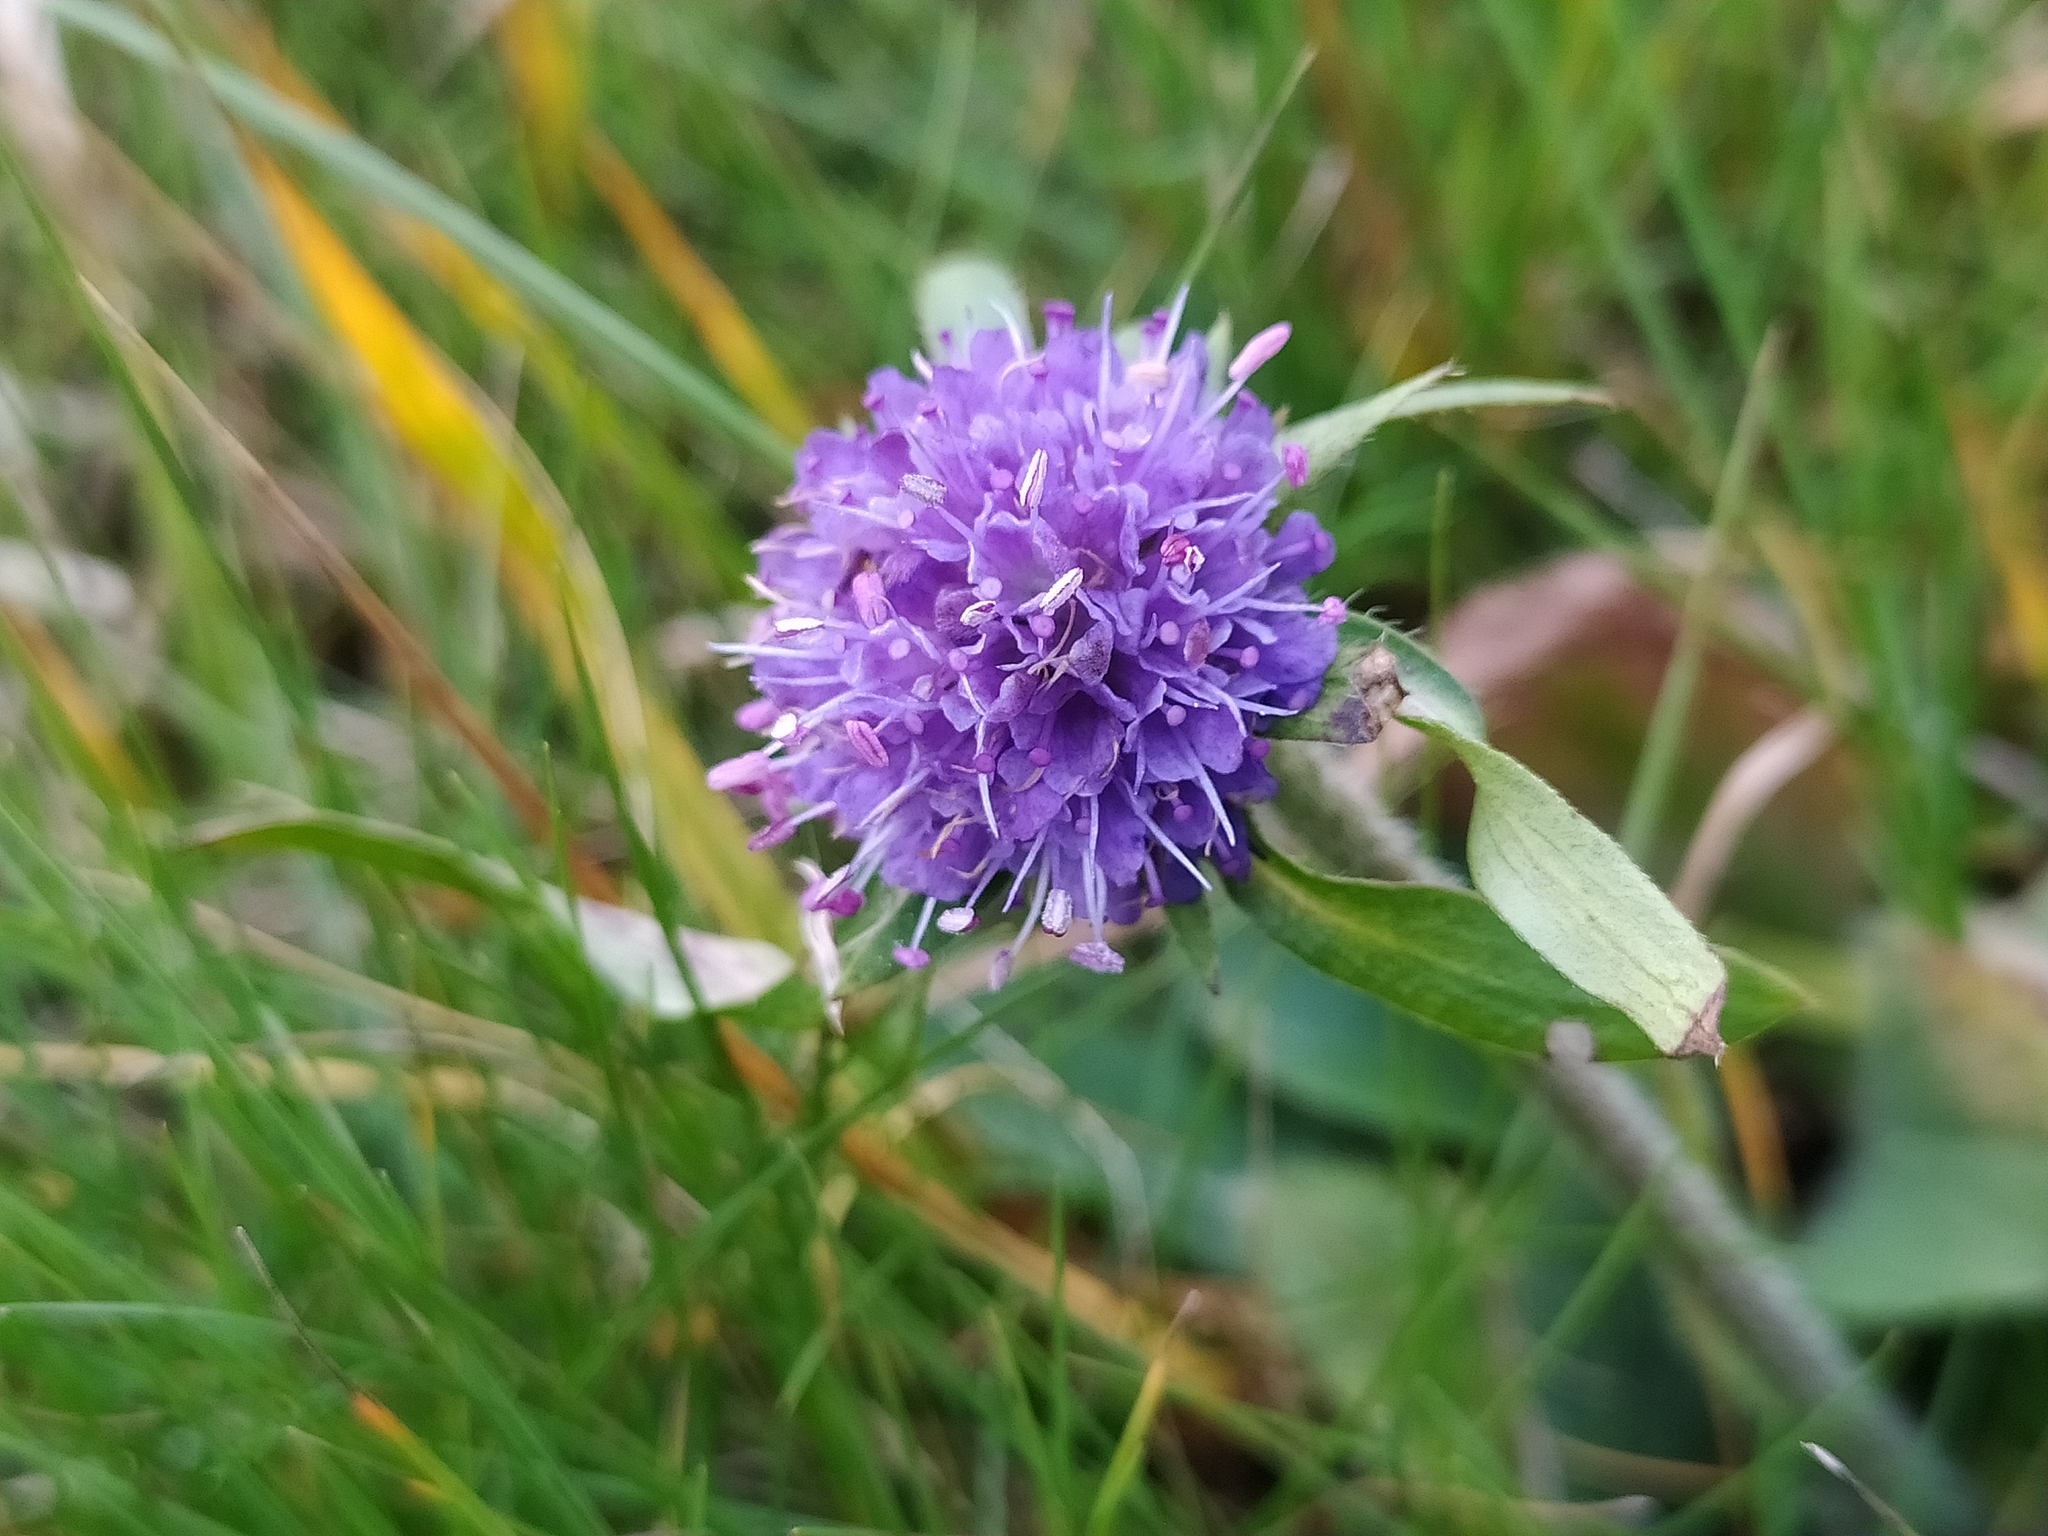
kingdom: Plantae
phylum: Tracheophyta
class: Magnoliopsida
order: Dipsacales
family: Caprifoliaceae
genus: Succisa
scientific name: Succisa pratensis
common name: Devil's-bit
